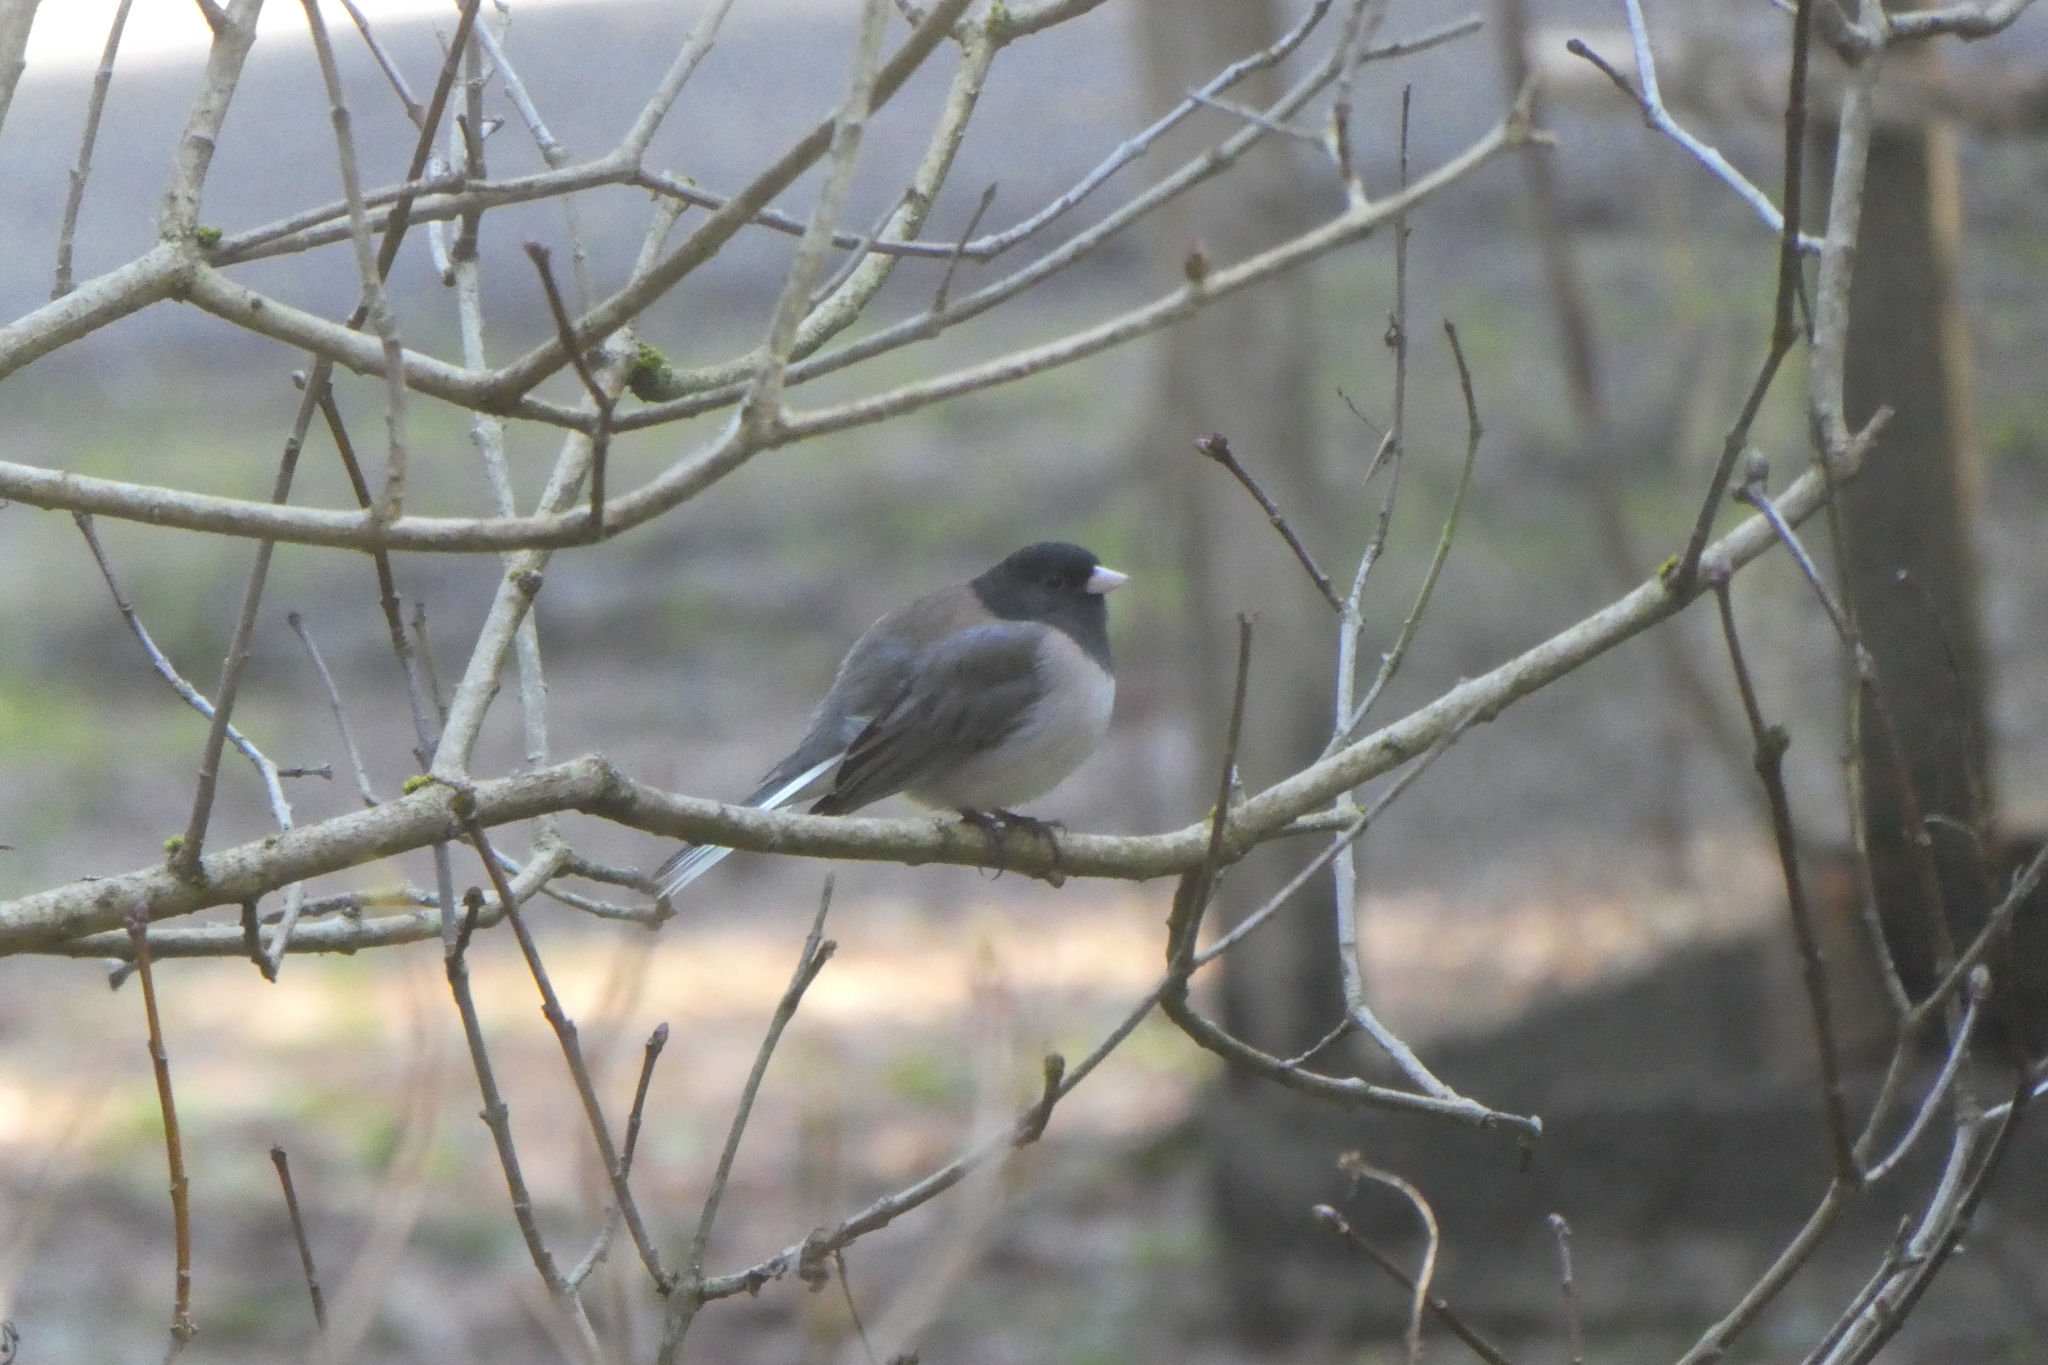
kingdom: Animalia
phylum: Chordata
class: Aves
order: Passeriformes
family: Passerellidae
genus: Junco
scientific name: Junco hyemalis
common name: Dark-eyed junco
